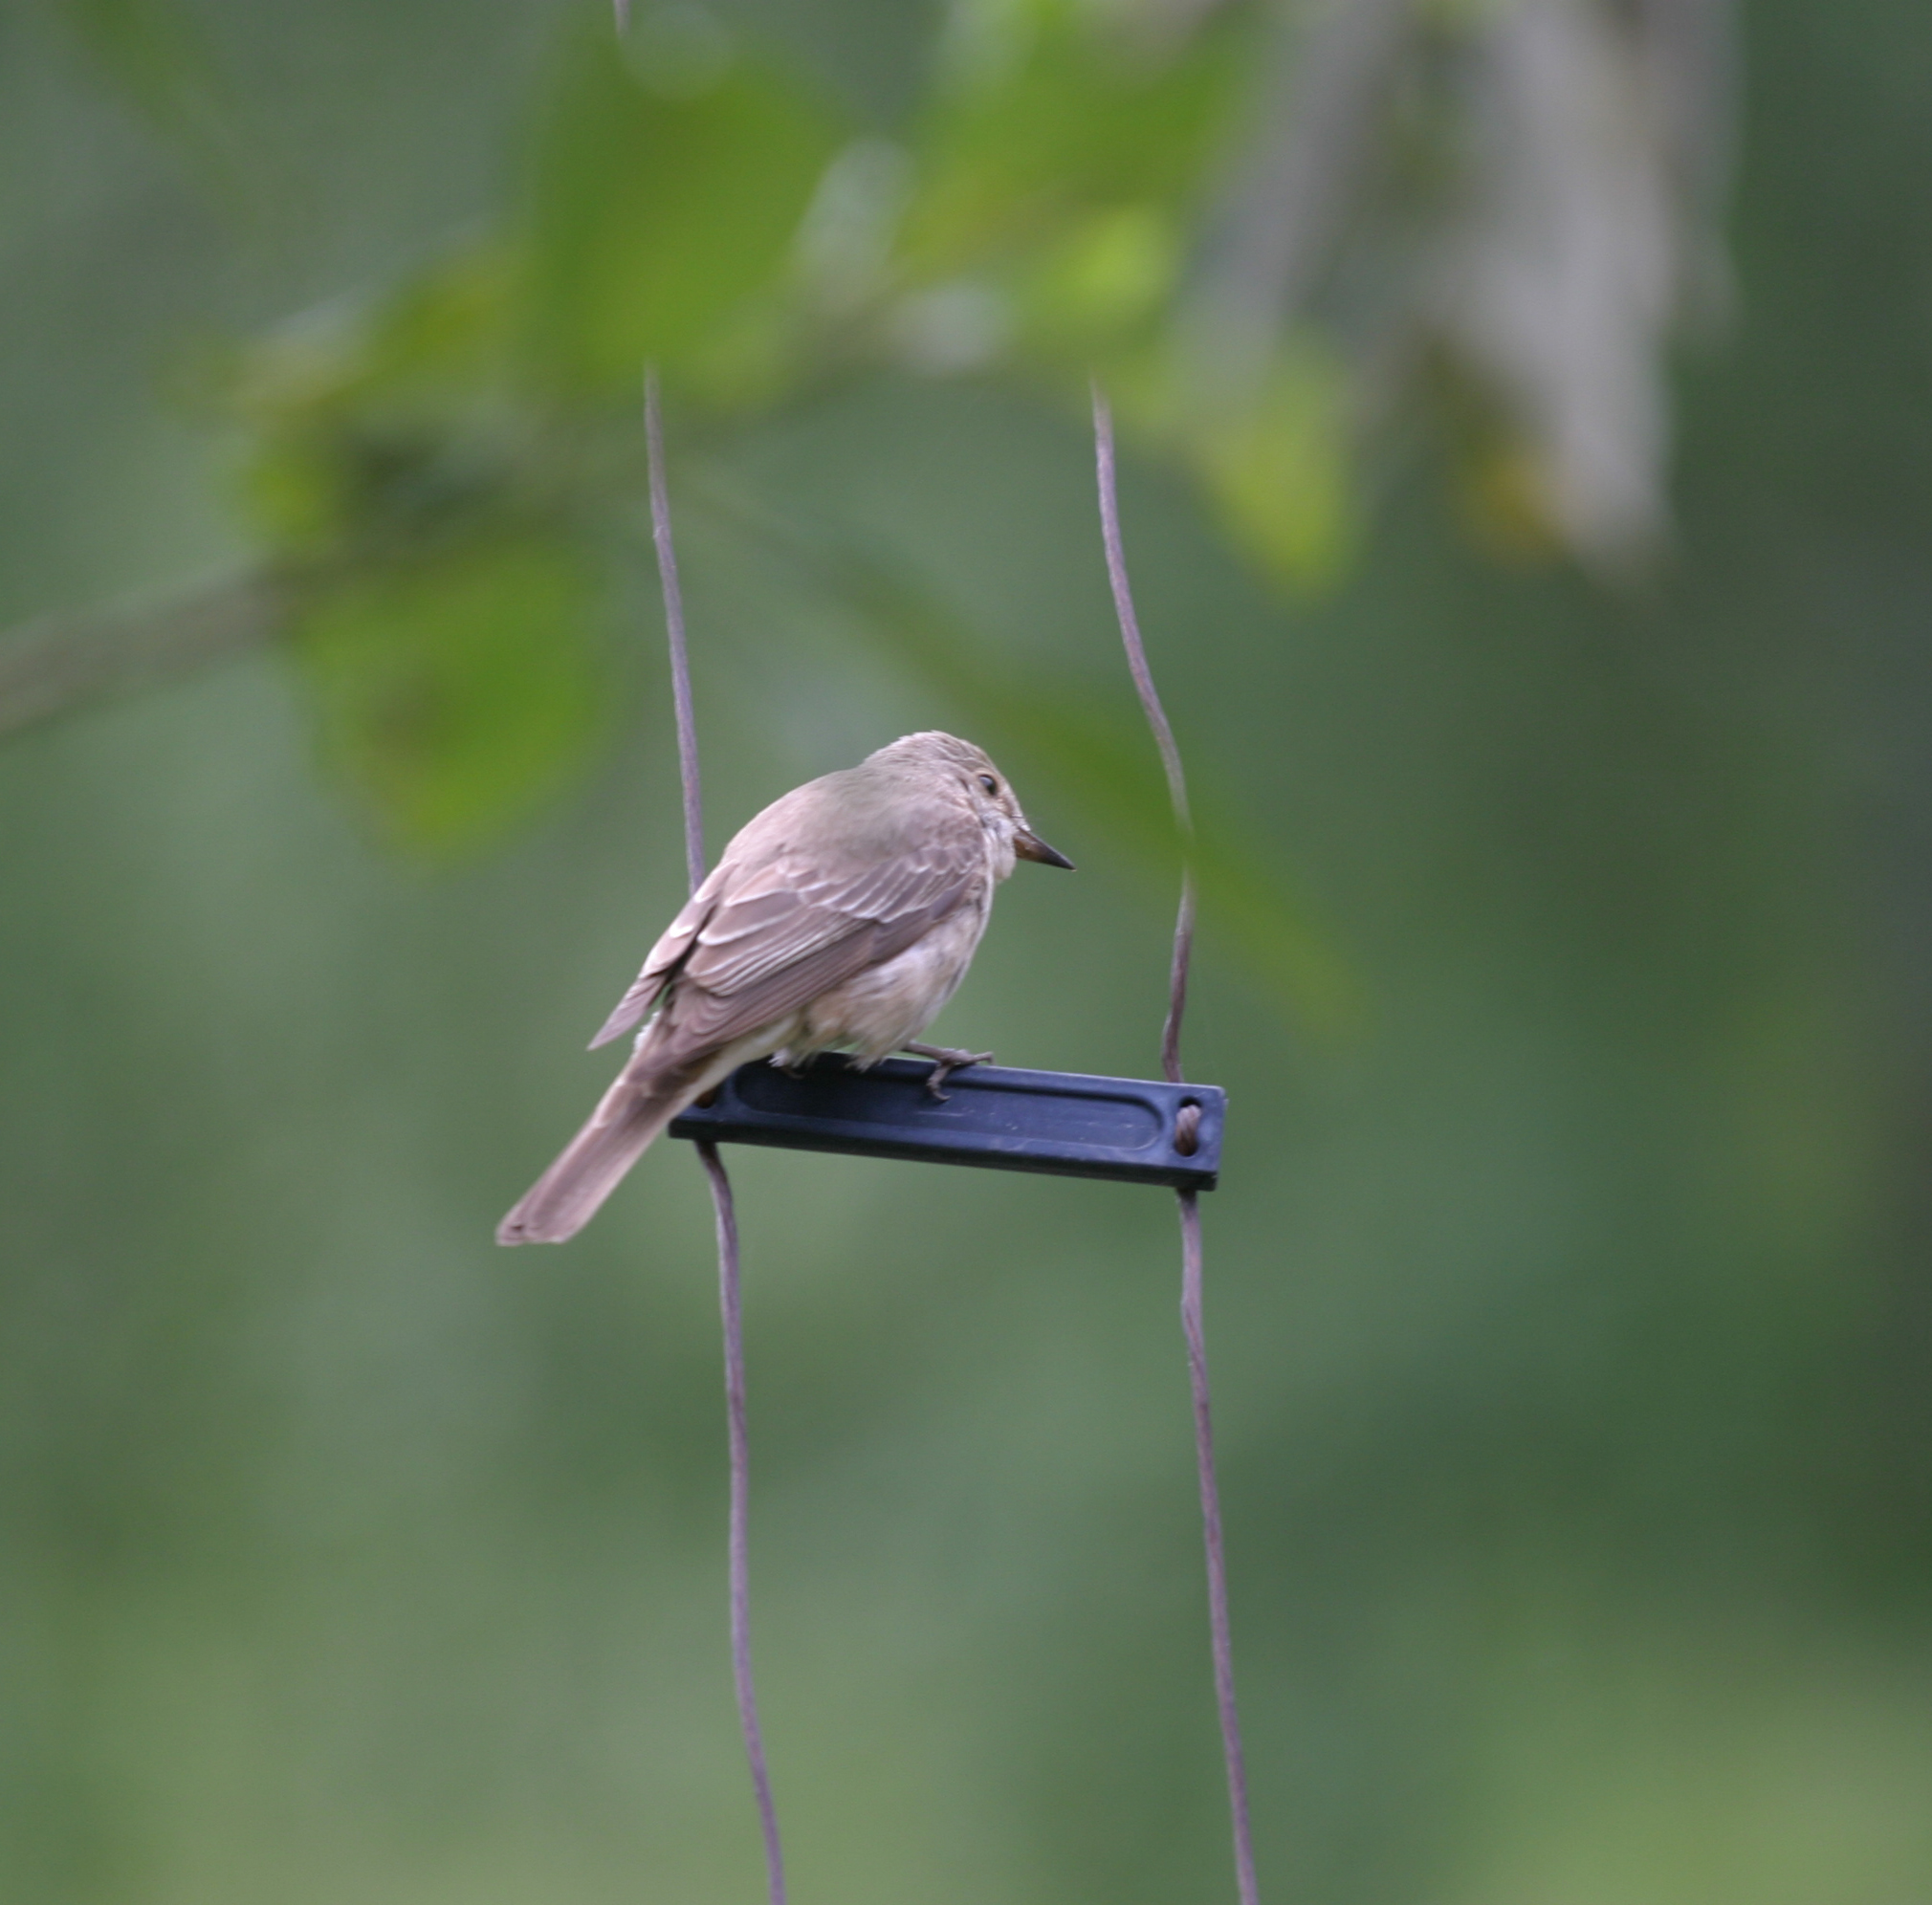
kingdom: Animalia
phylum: Chordata
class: Aves
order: Passeriformes
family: Muscicapidae
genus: Muscicapa
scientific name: Muscicapa striata
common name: Spotted flycatcher
